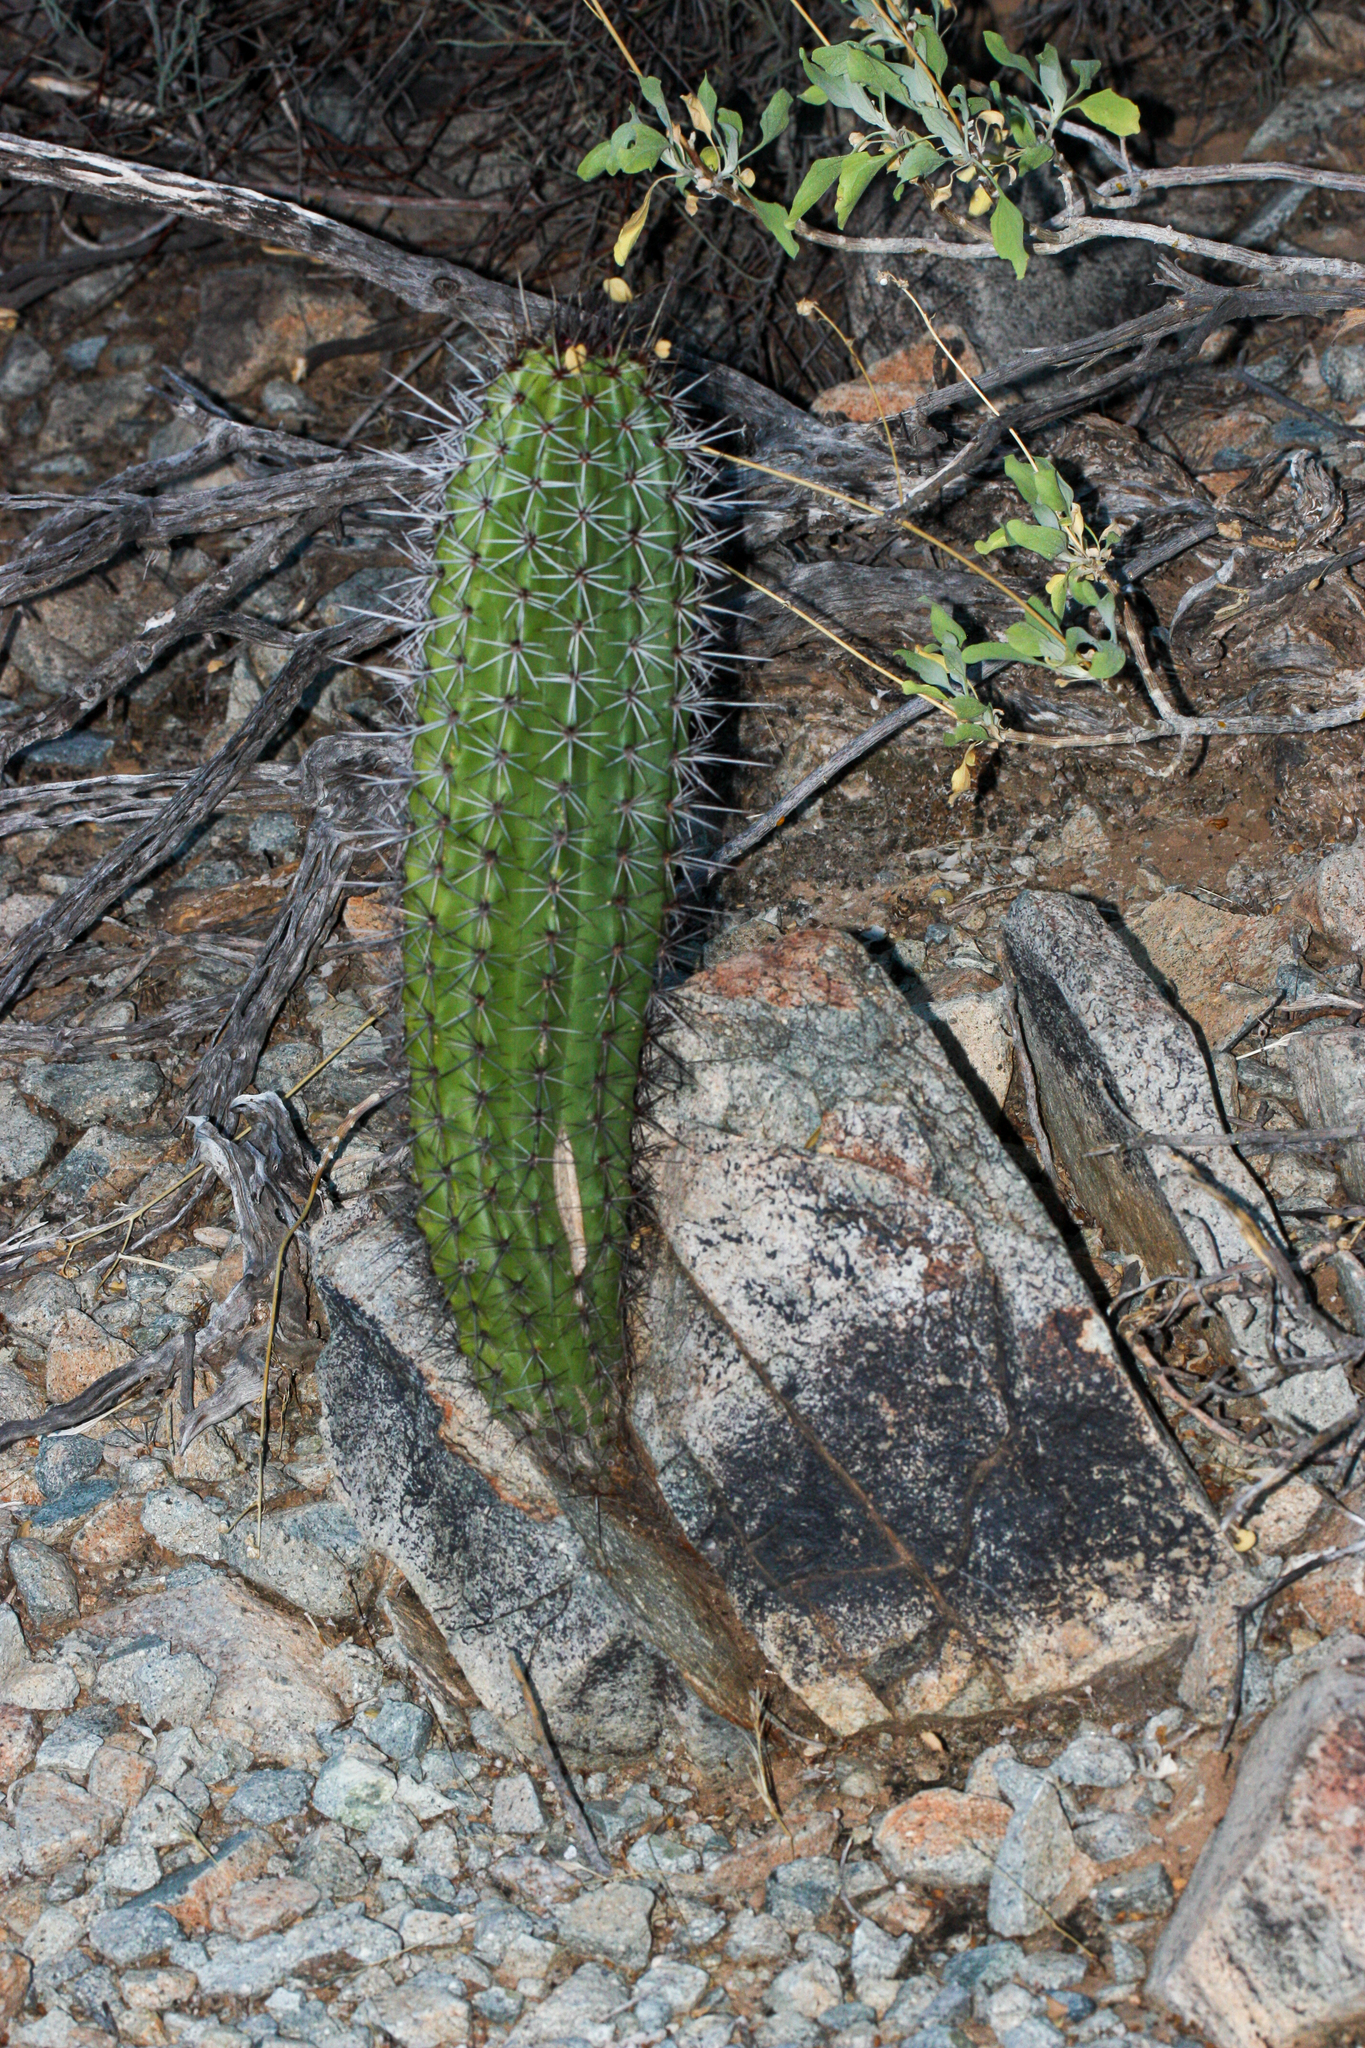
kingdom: Plantae
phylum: Tracheophyta
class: Magnoliopsida
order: Caryophyllales
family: Cactaceae
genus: Stenocereus
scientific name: Stenocereus thurberi
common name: Organ pipe cactus
